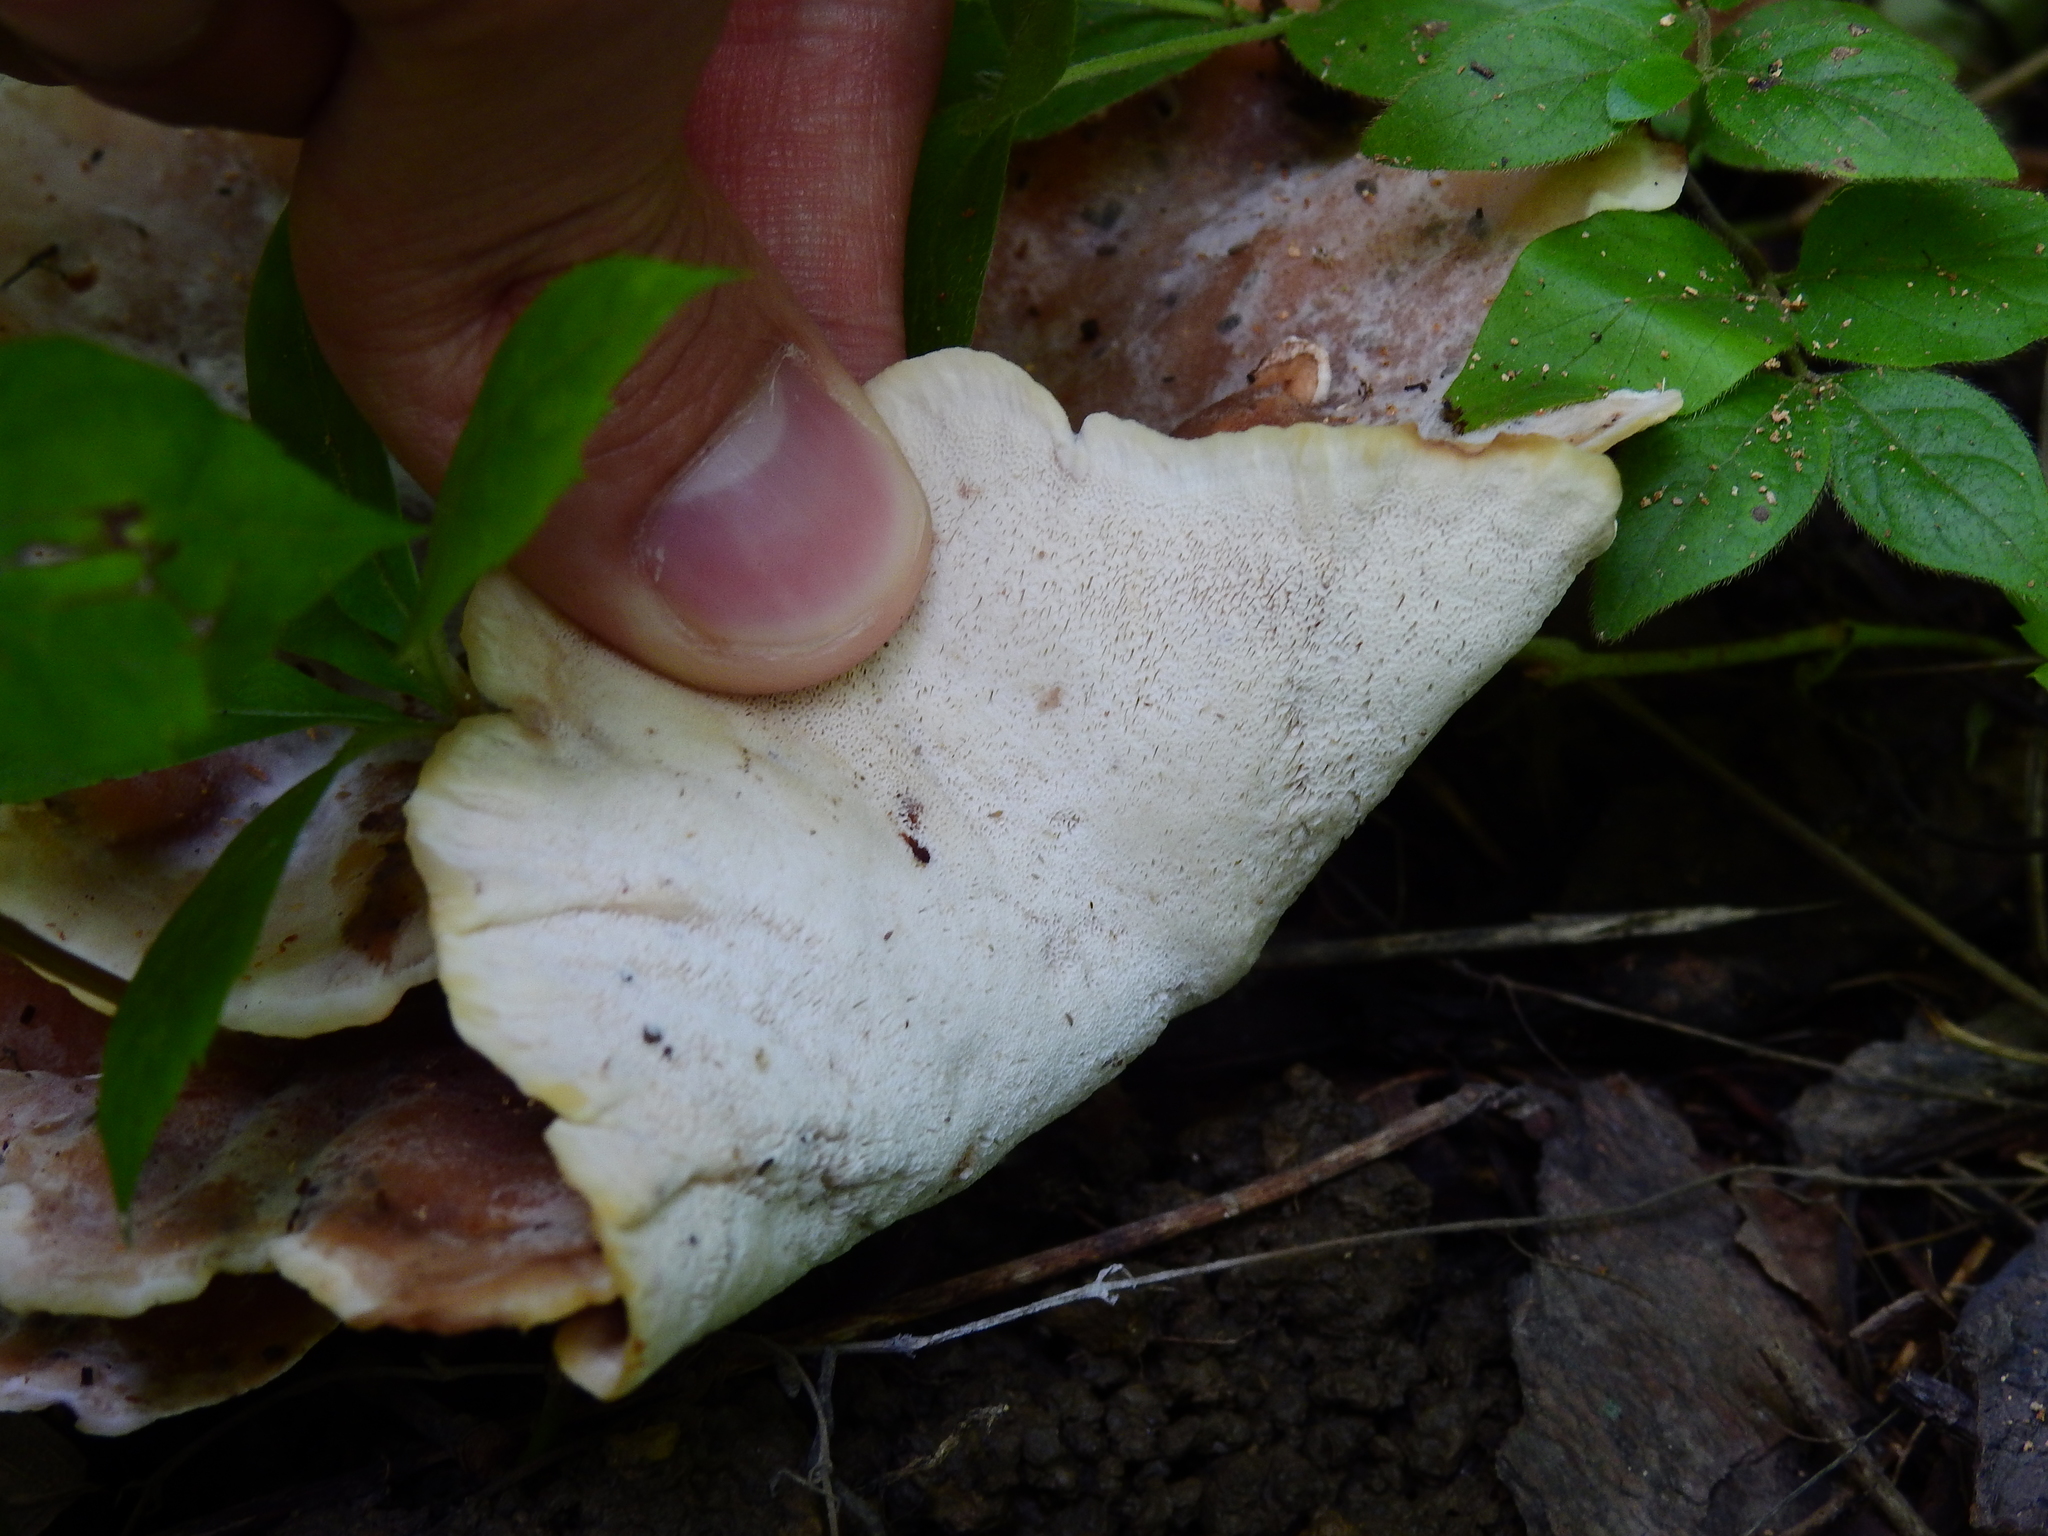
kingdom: Fungi
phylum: Basidiomycota
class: Agaricomycetes
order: Polyporales
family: Podoscyphaceae
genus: Abortiporus
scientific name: Abortiporus biennis
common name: Blushing rosette
